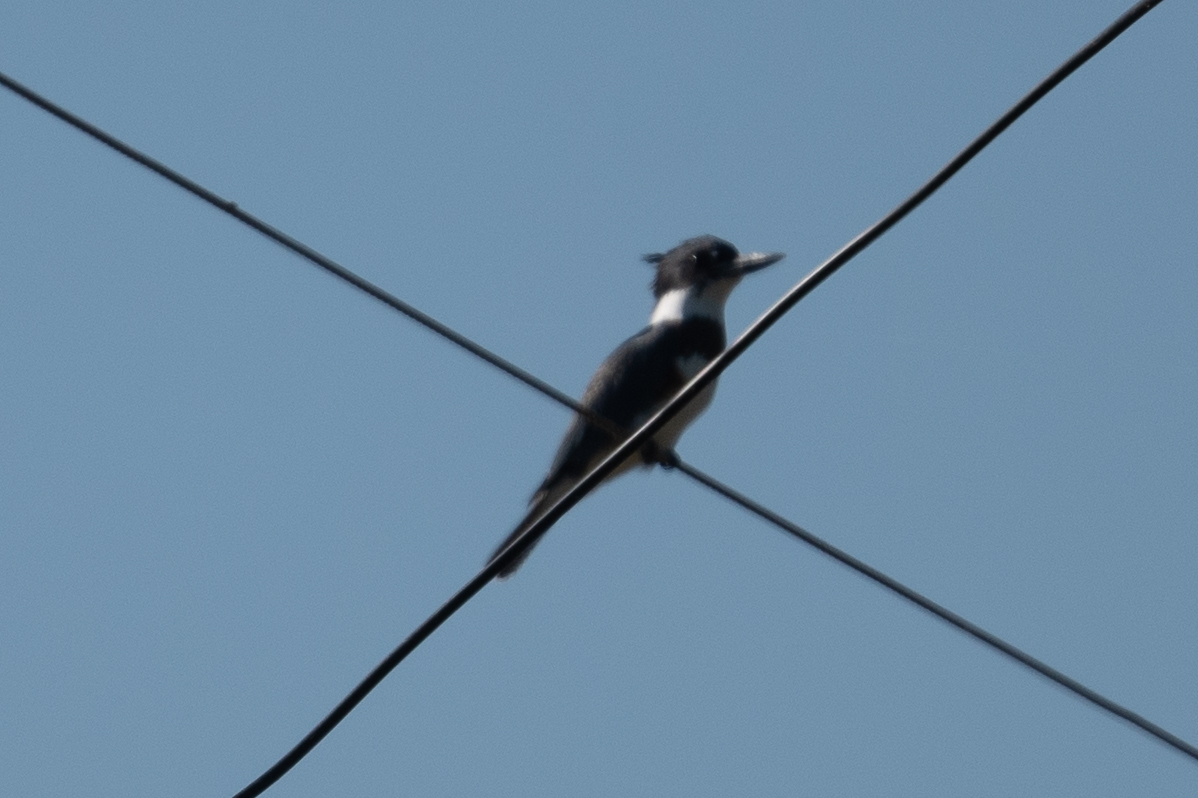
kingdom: Animalia
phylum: Chordata
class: Aves
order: Coraciiformes
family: Alcedinidae
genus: Megaceryle
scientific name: Megaceryle alcyon
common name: Belted kingfisher
